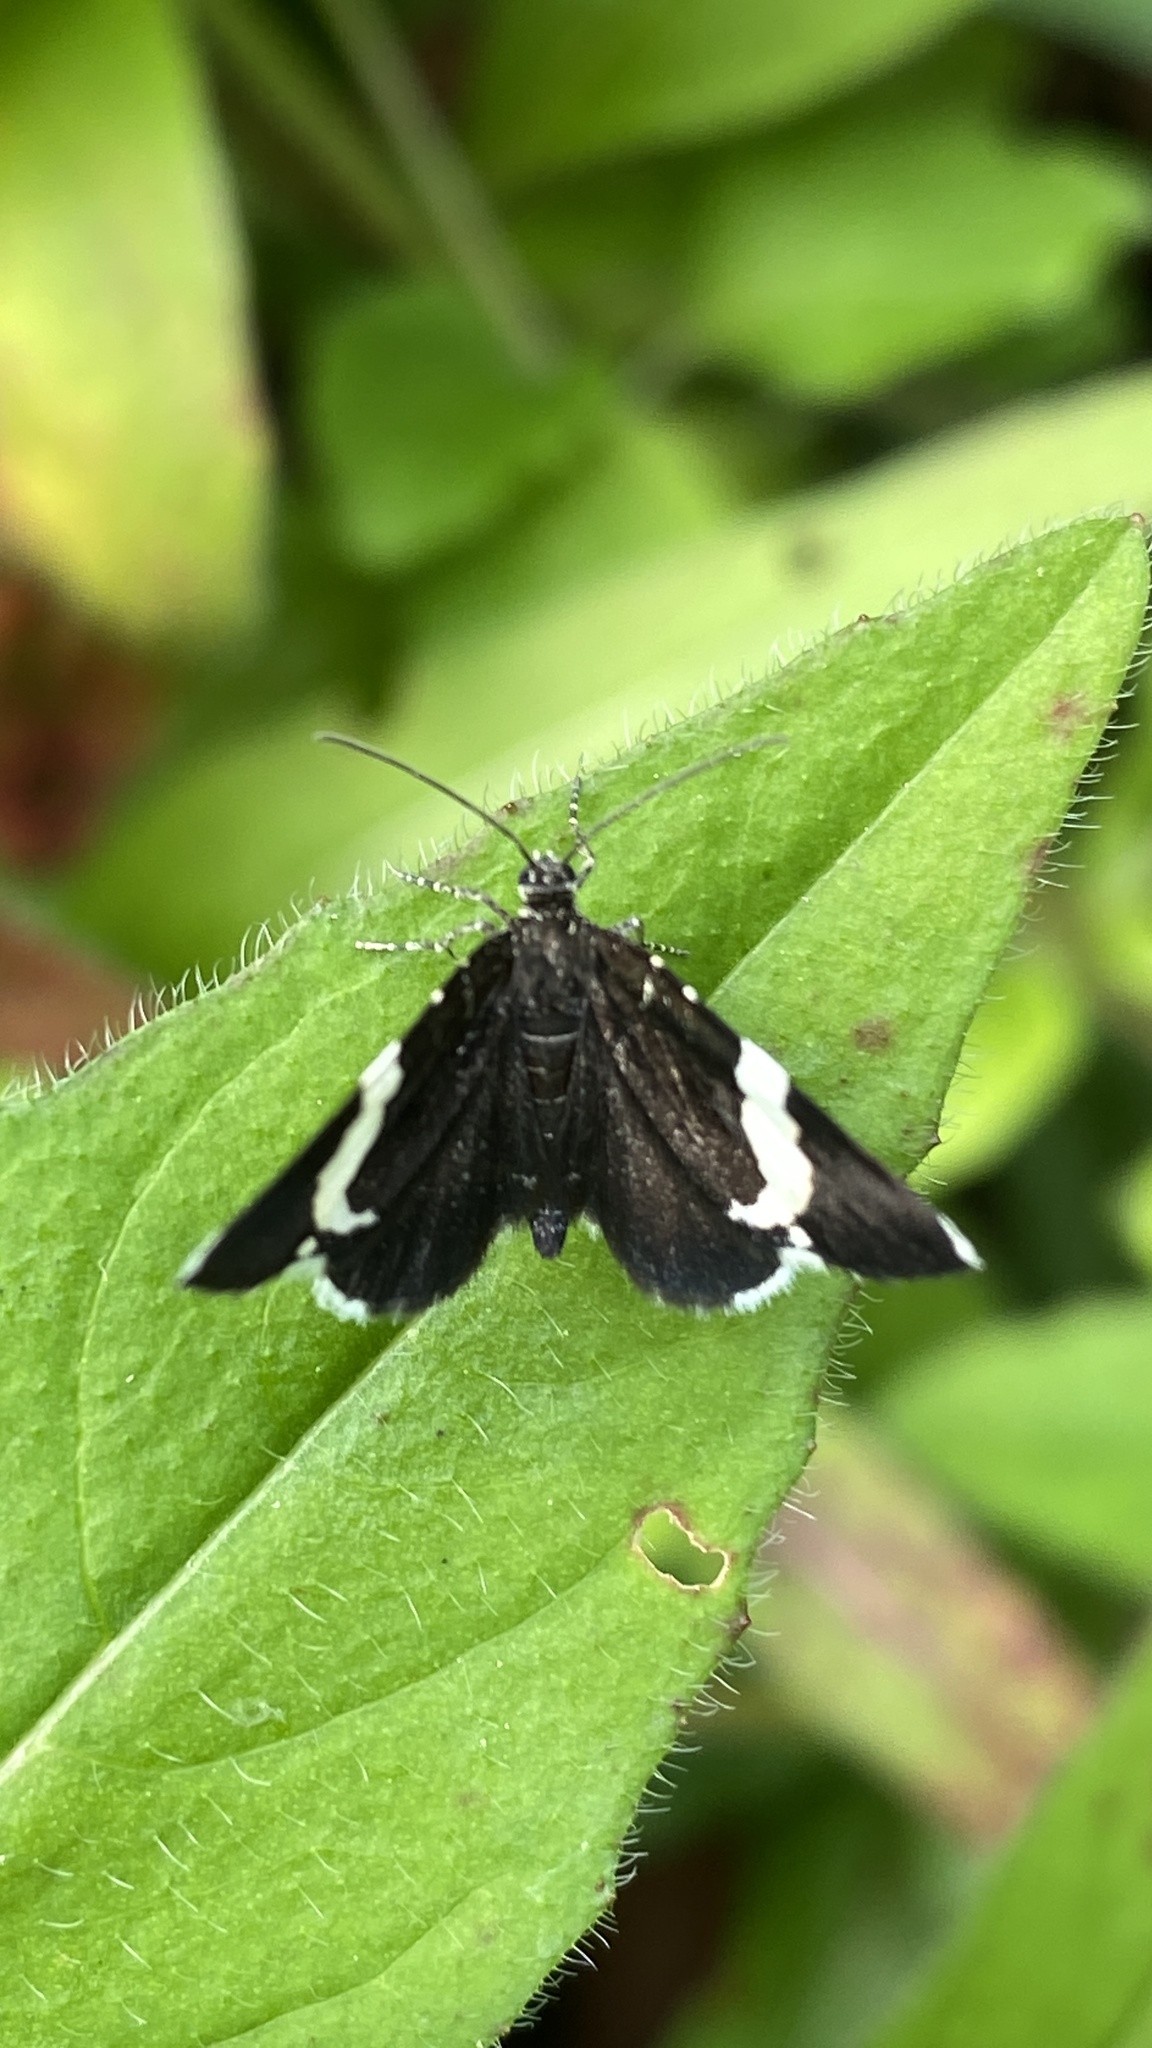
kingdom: Animalia
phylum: Arthropoda
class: Insecta
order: Lepidoptera
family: Geometridae
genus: Trichodezia
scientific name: Trichodezia albovittata
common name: White striped black
